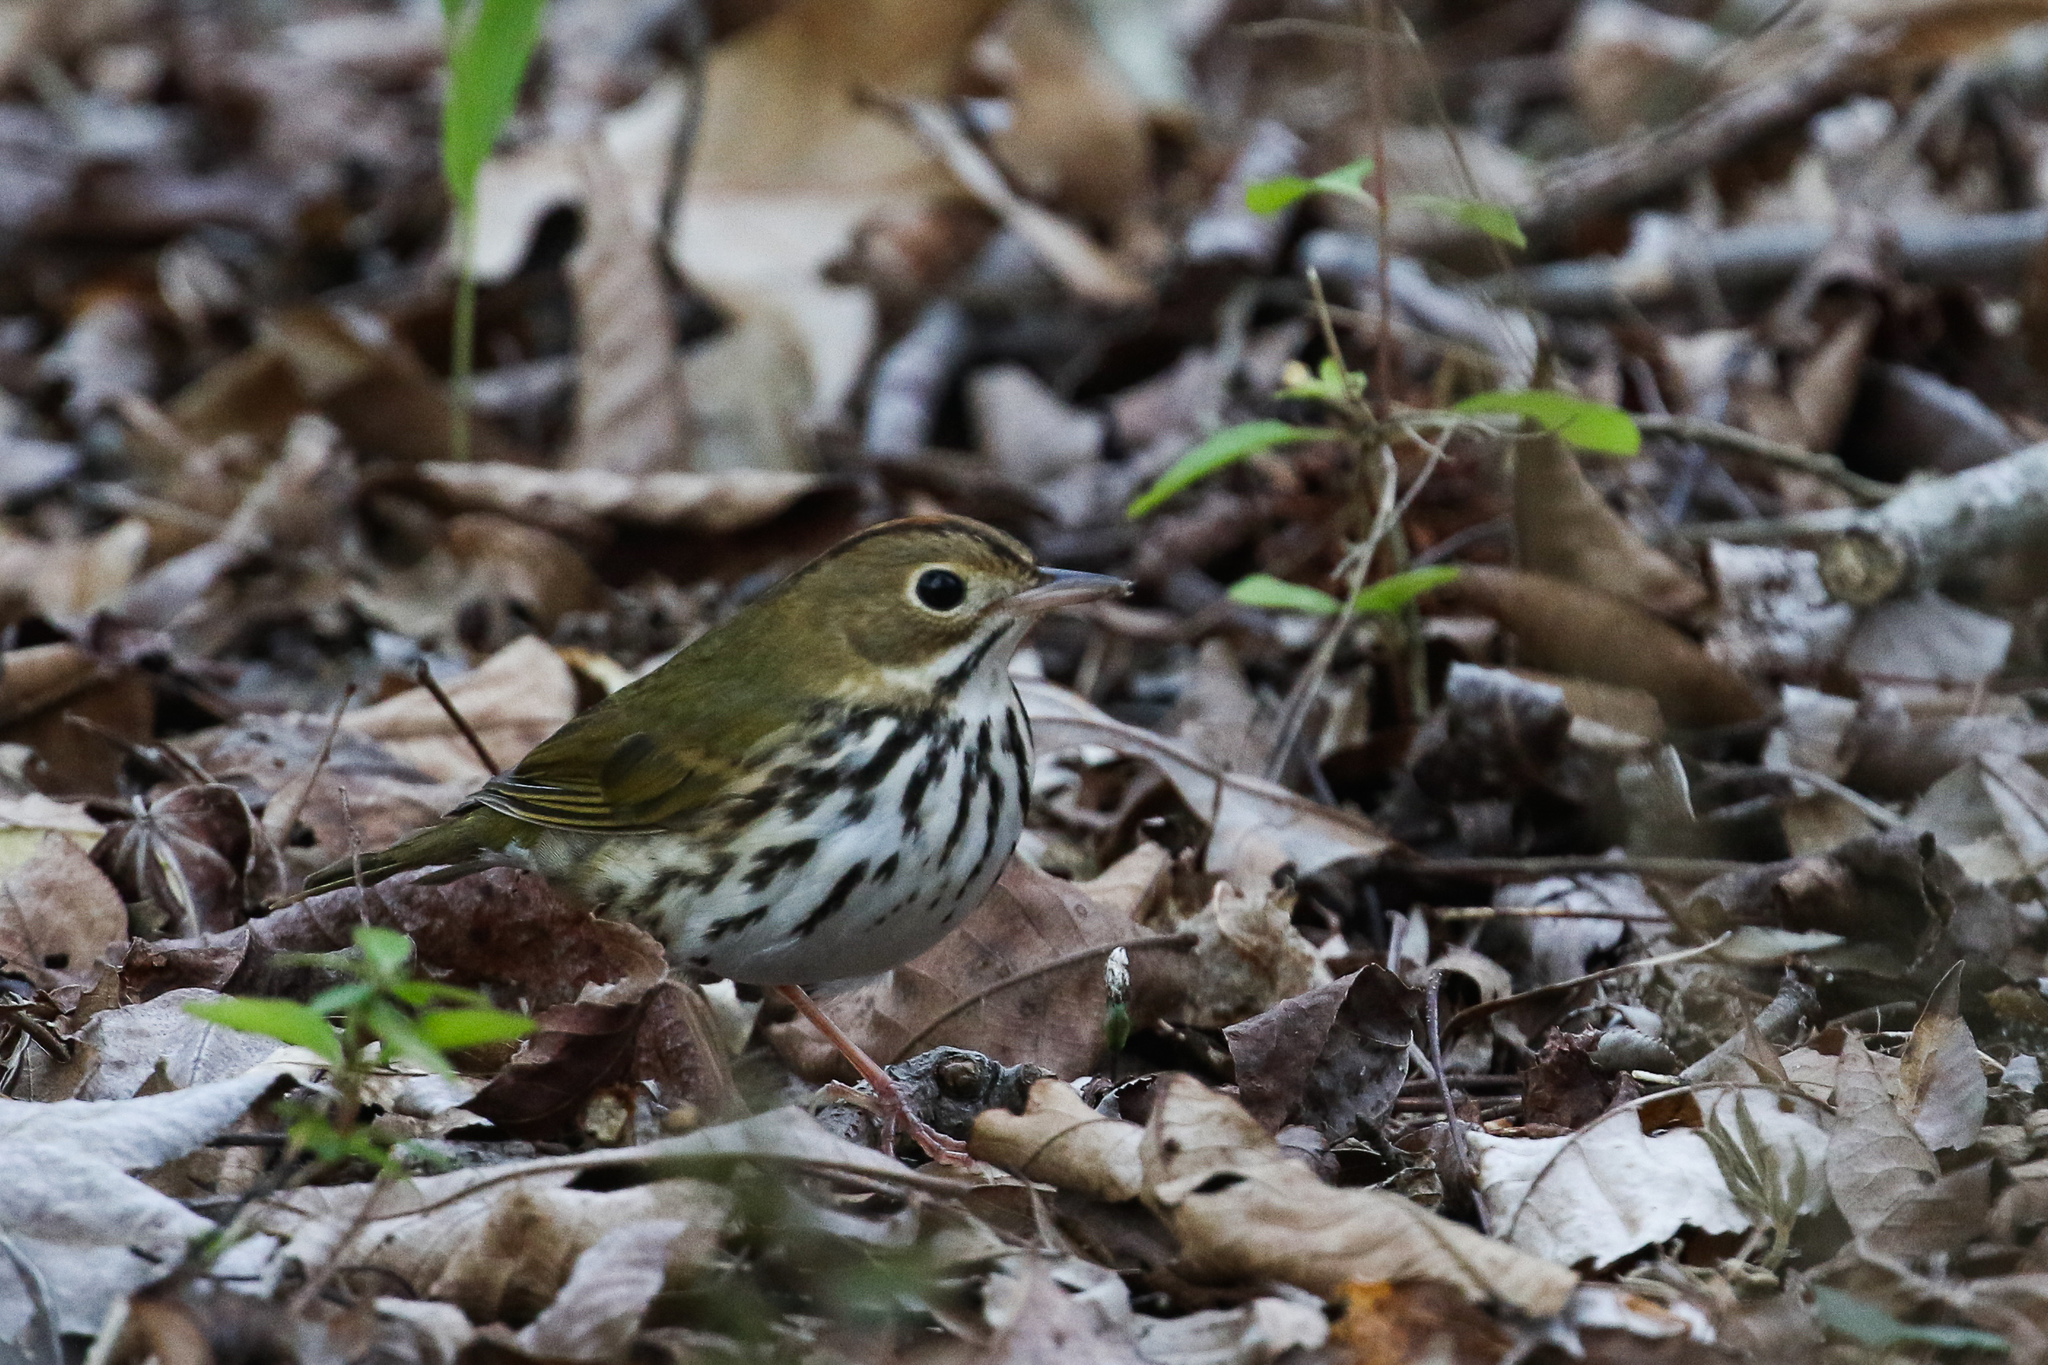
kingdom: Animalia
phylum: Chordata
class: Aves
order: Passeriformes
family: Parulidae
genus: Seiurus
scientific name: Seiurus aurocapilla
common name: Ovenbird
